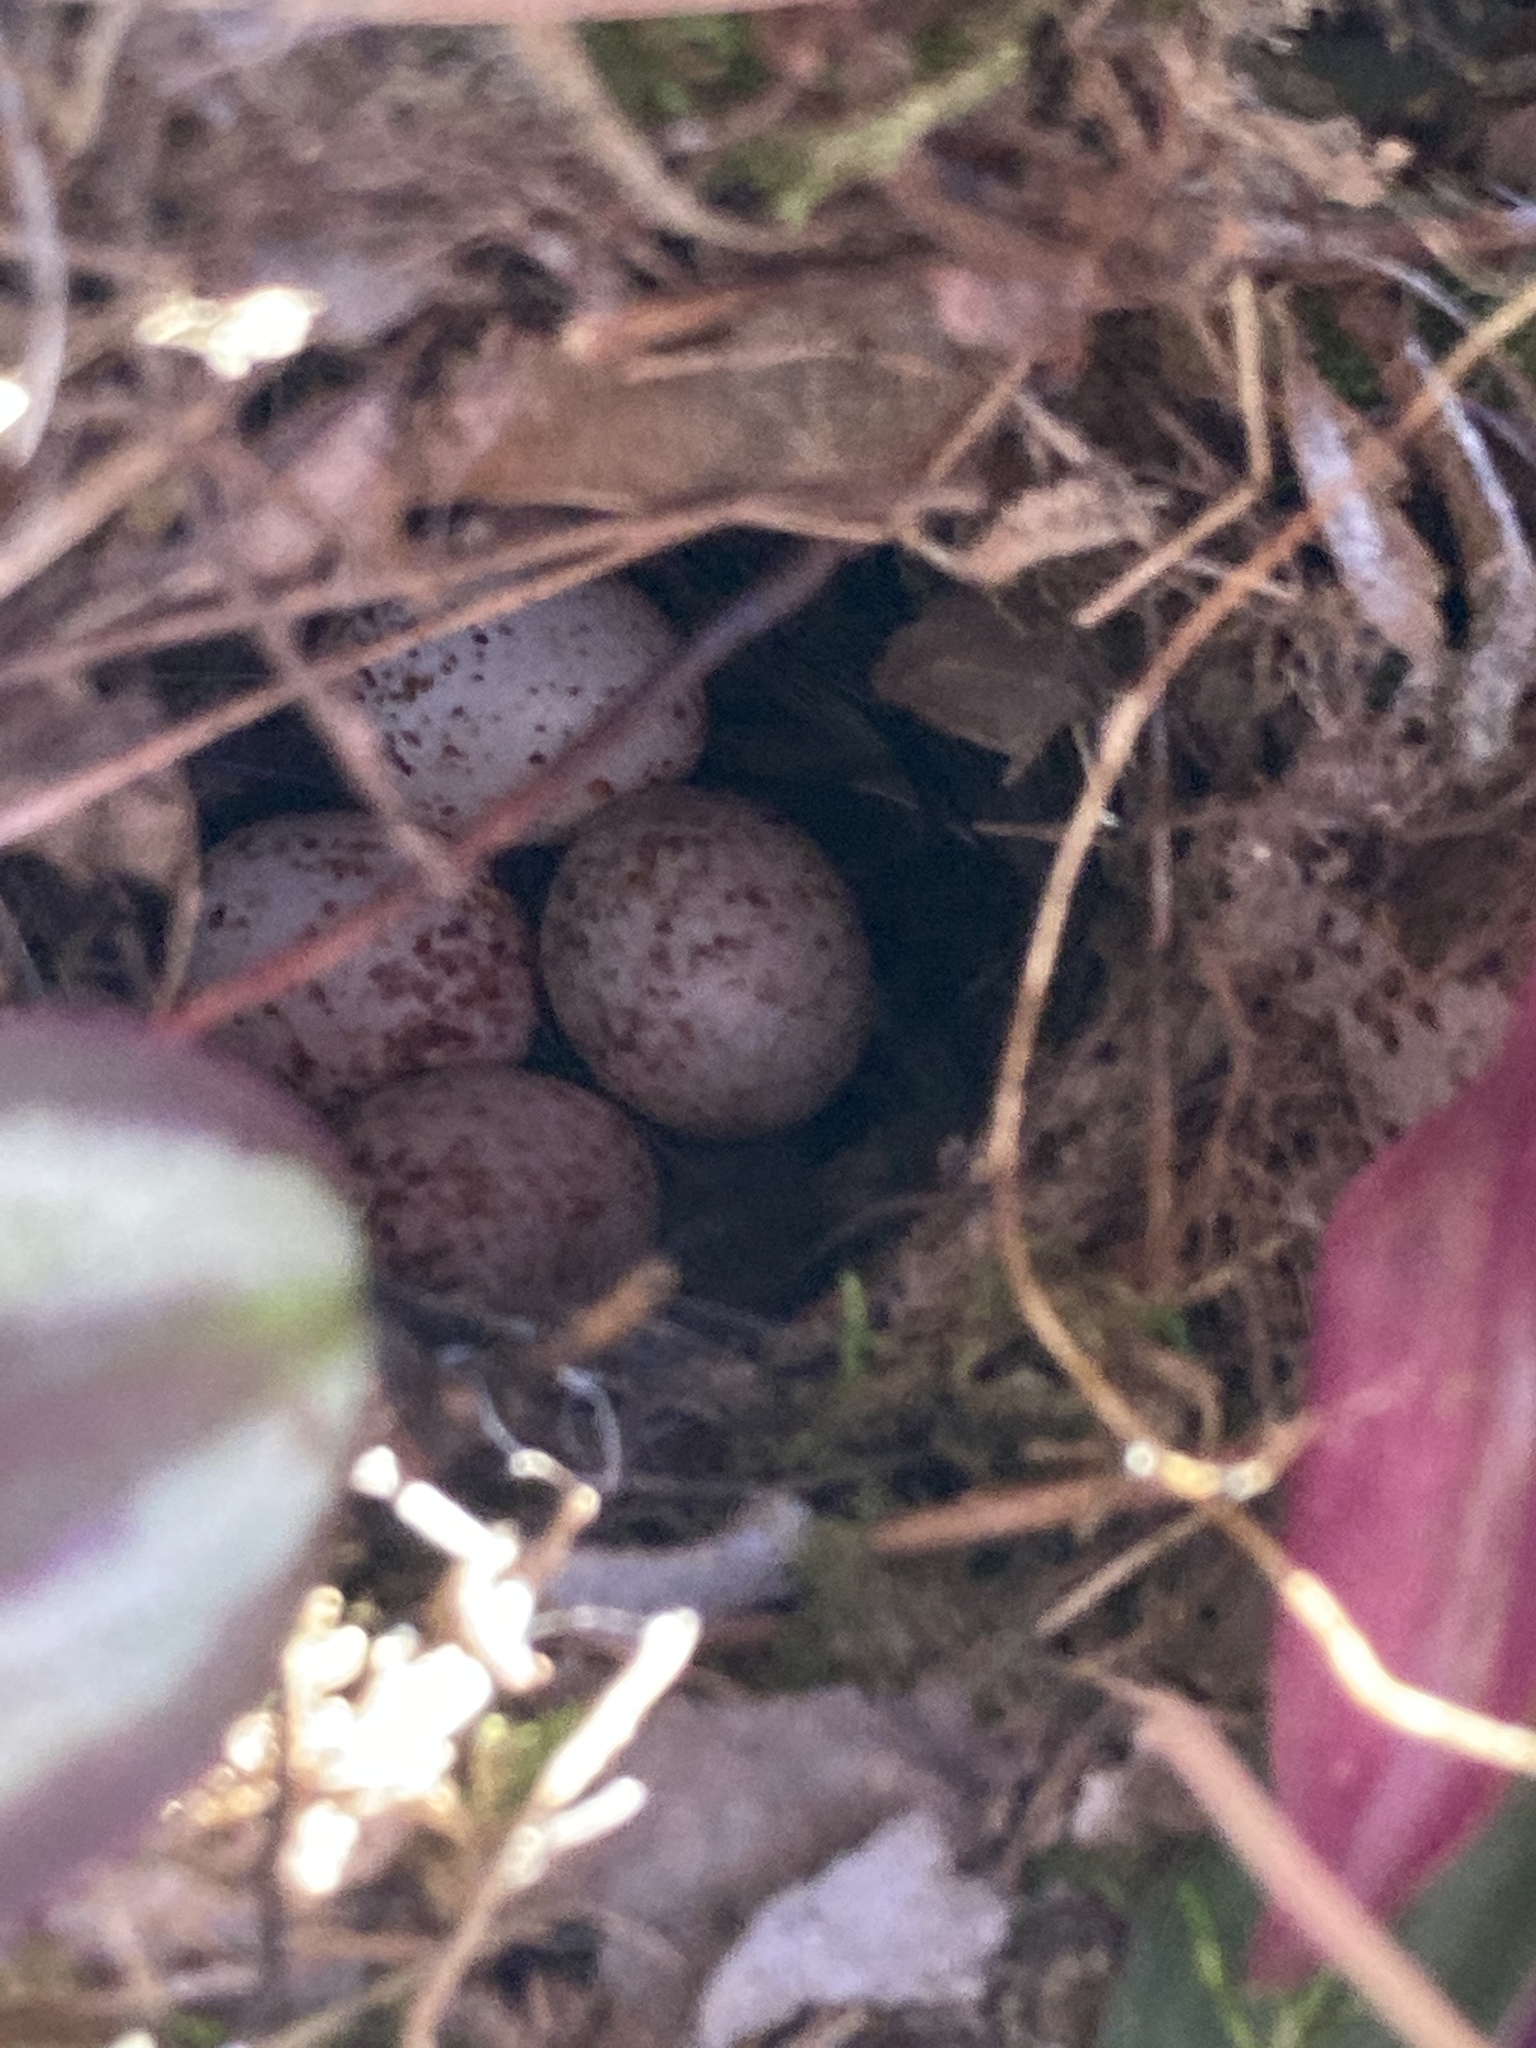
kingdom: Animalia
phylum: Chordata
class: Aves
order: Passeriformes
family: Troglodytidae
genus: Thryothorus
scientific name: Thryothorus ludovicianus
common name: Carolina wren
